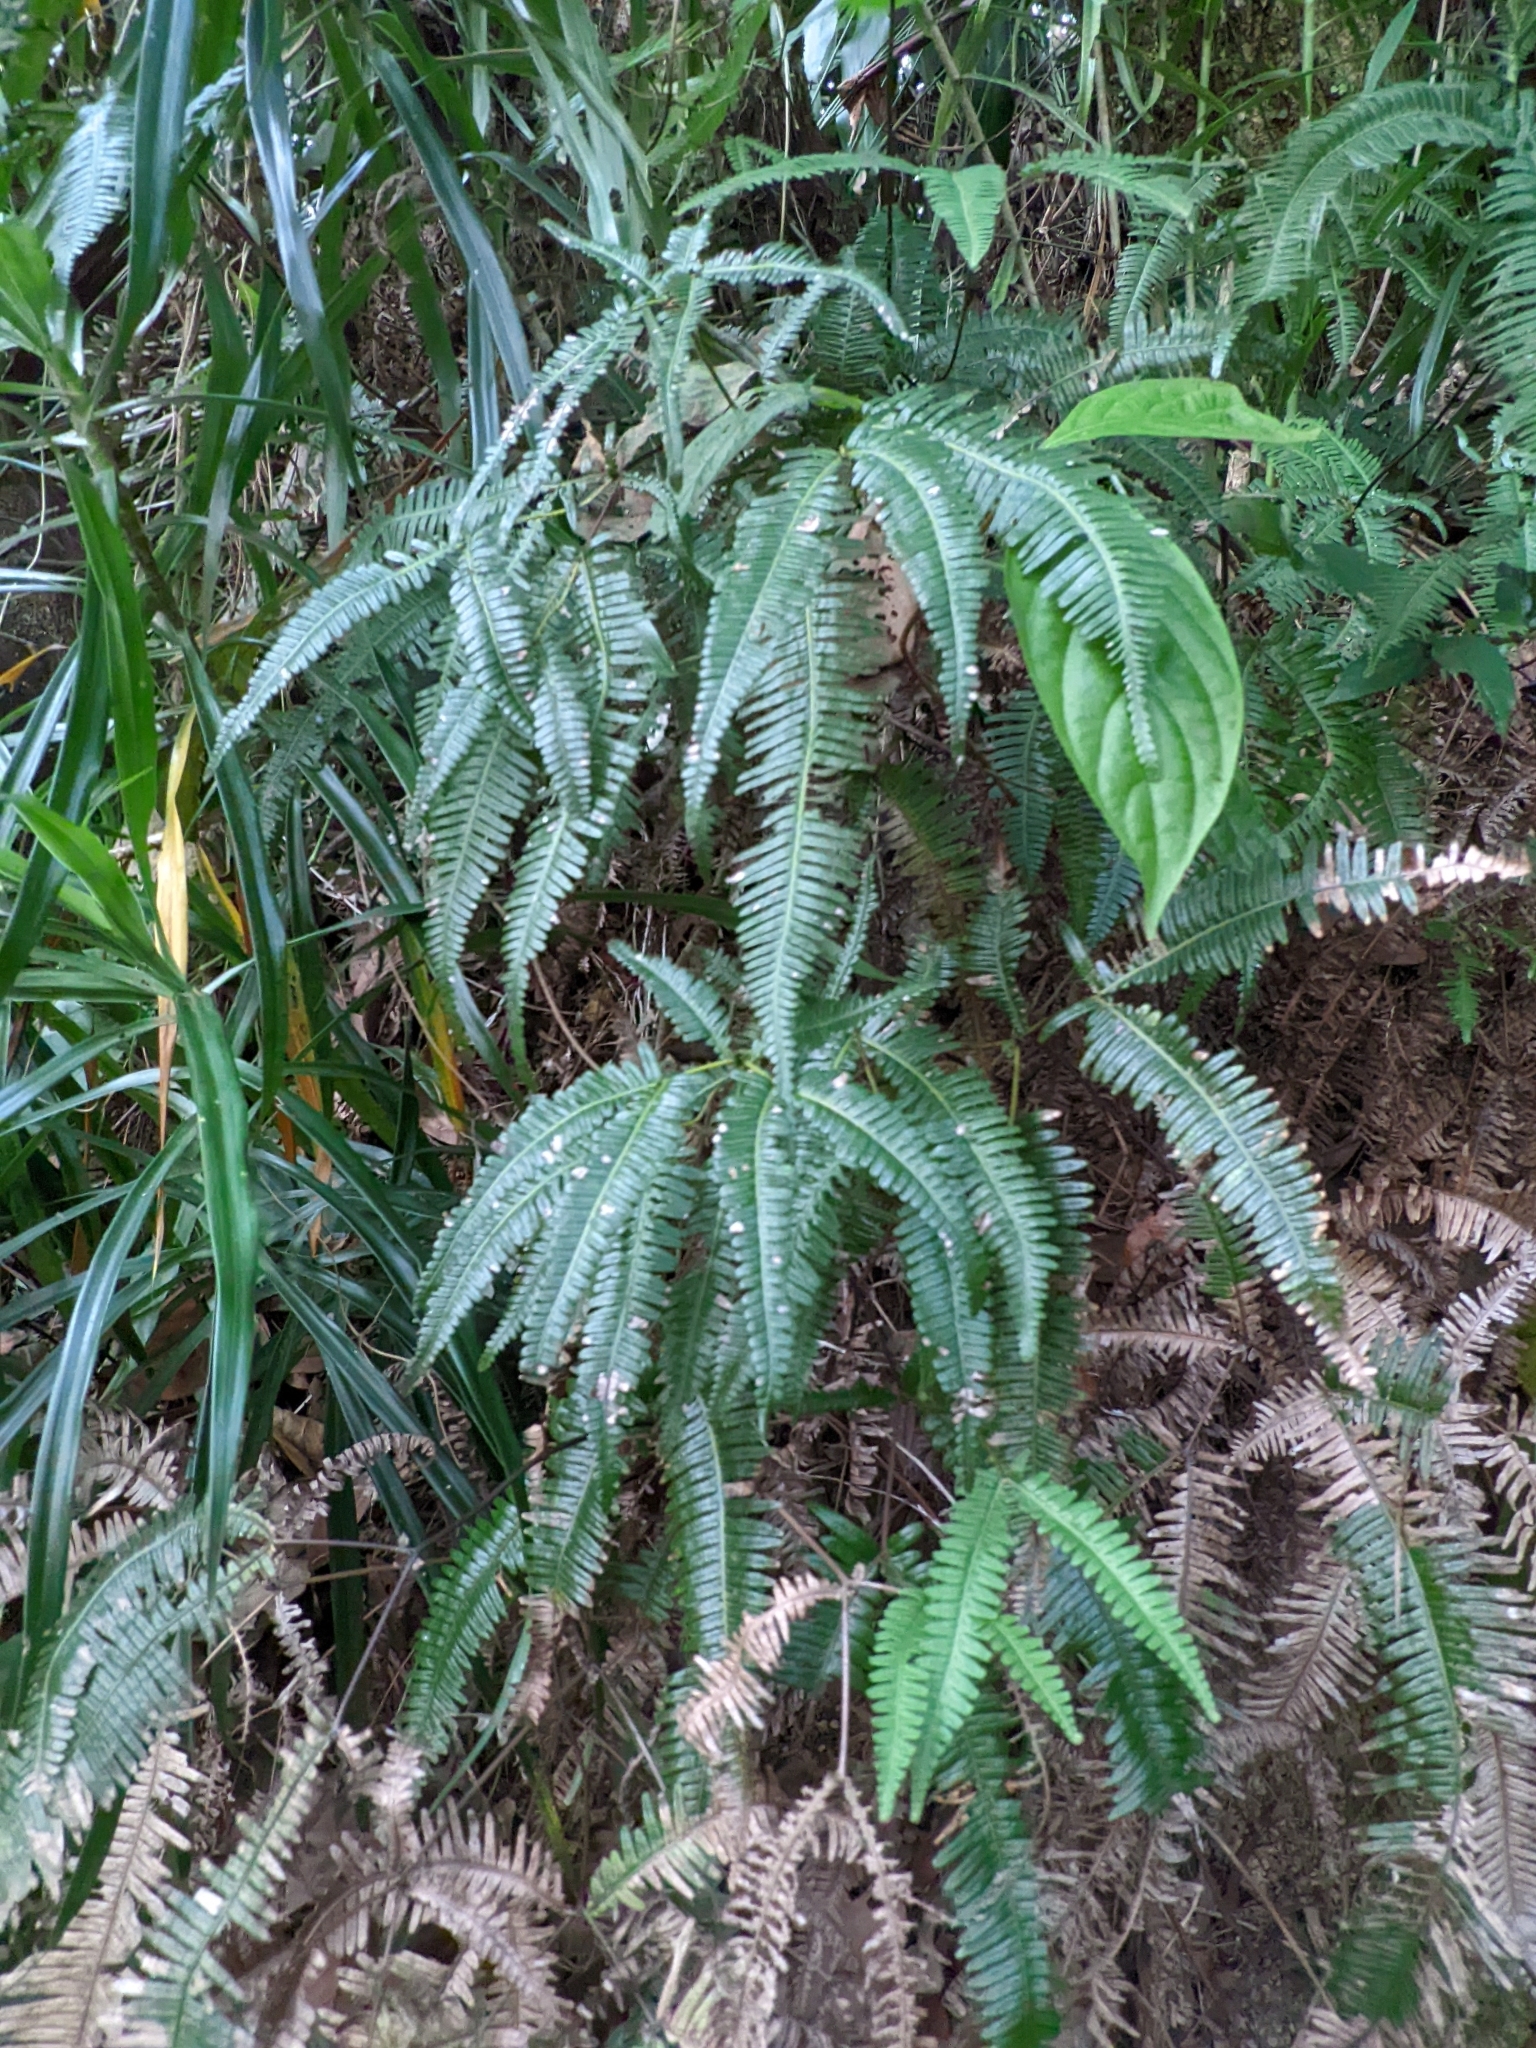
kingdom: Plantae
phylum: Tracheophyta
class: Polypodiopsida
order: Gleicheniales
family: Gleicheniaceae
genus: Dicranopteris
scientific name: Dicranopteris linearis
